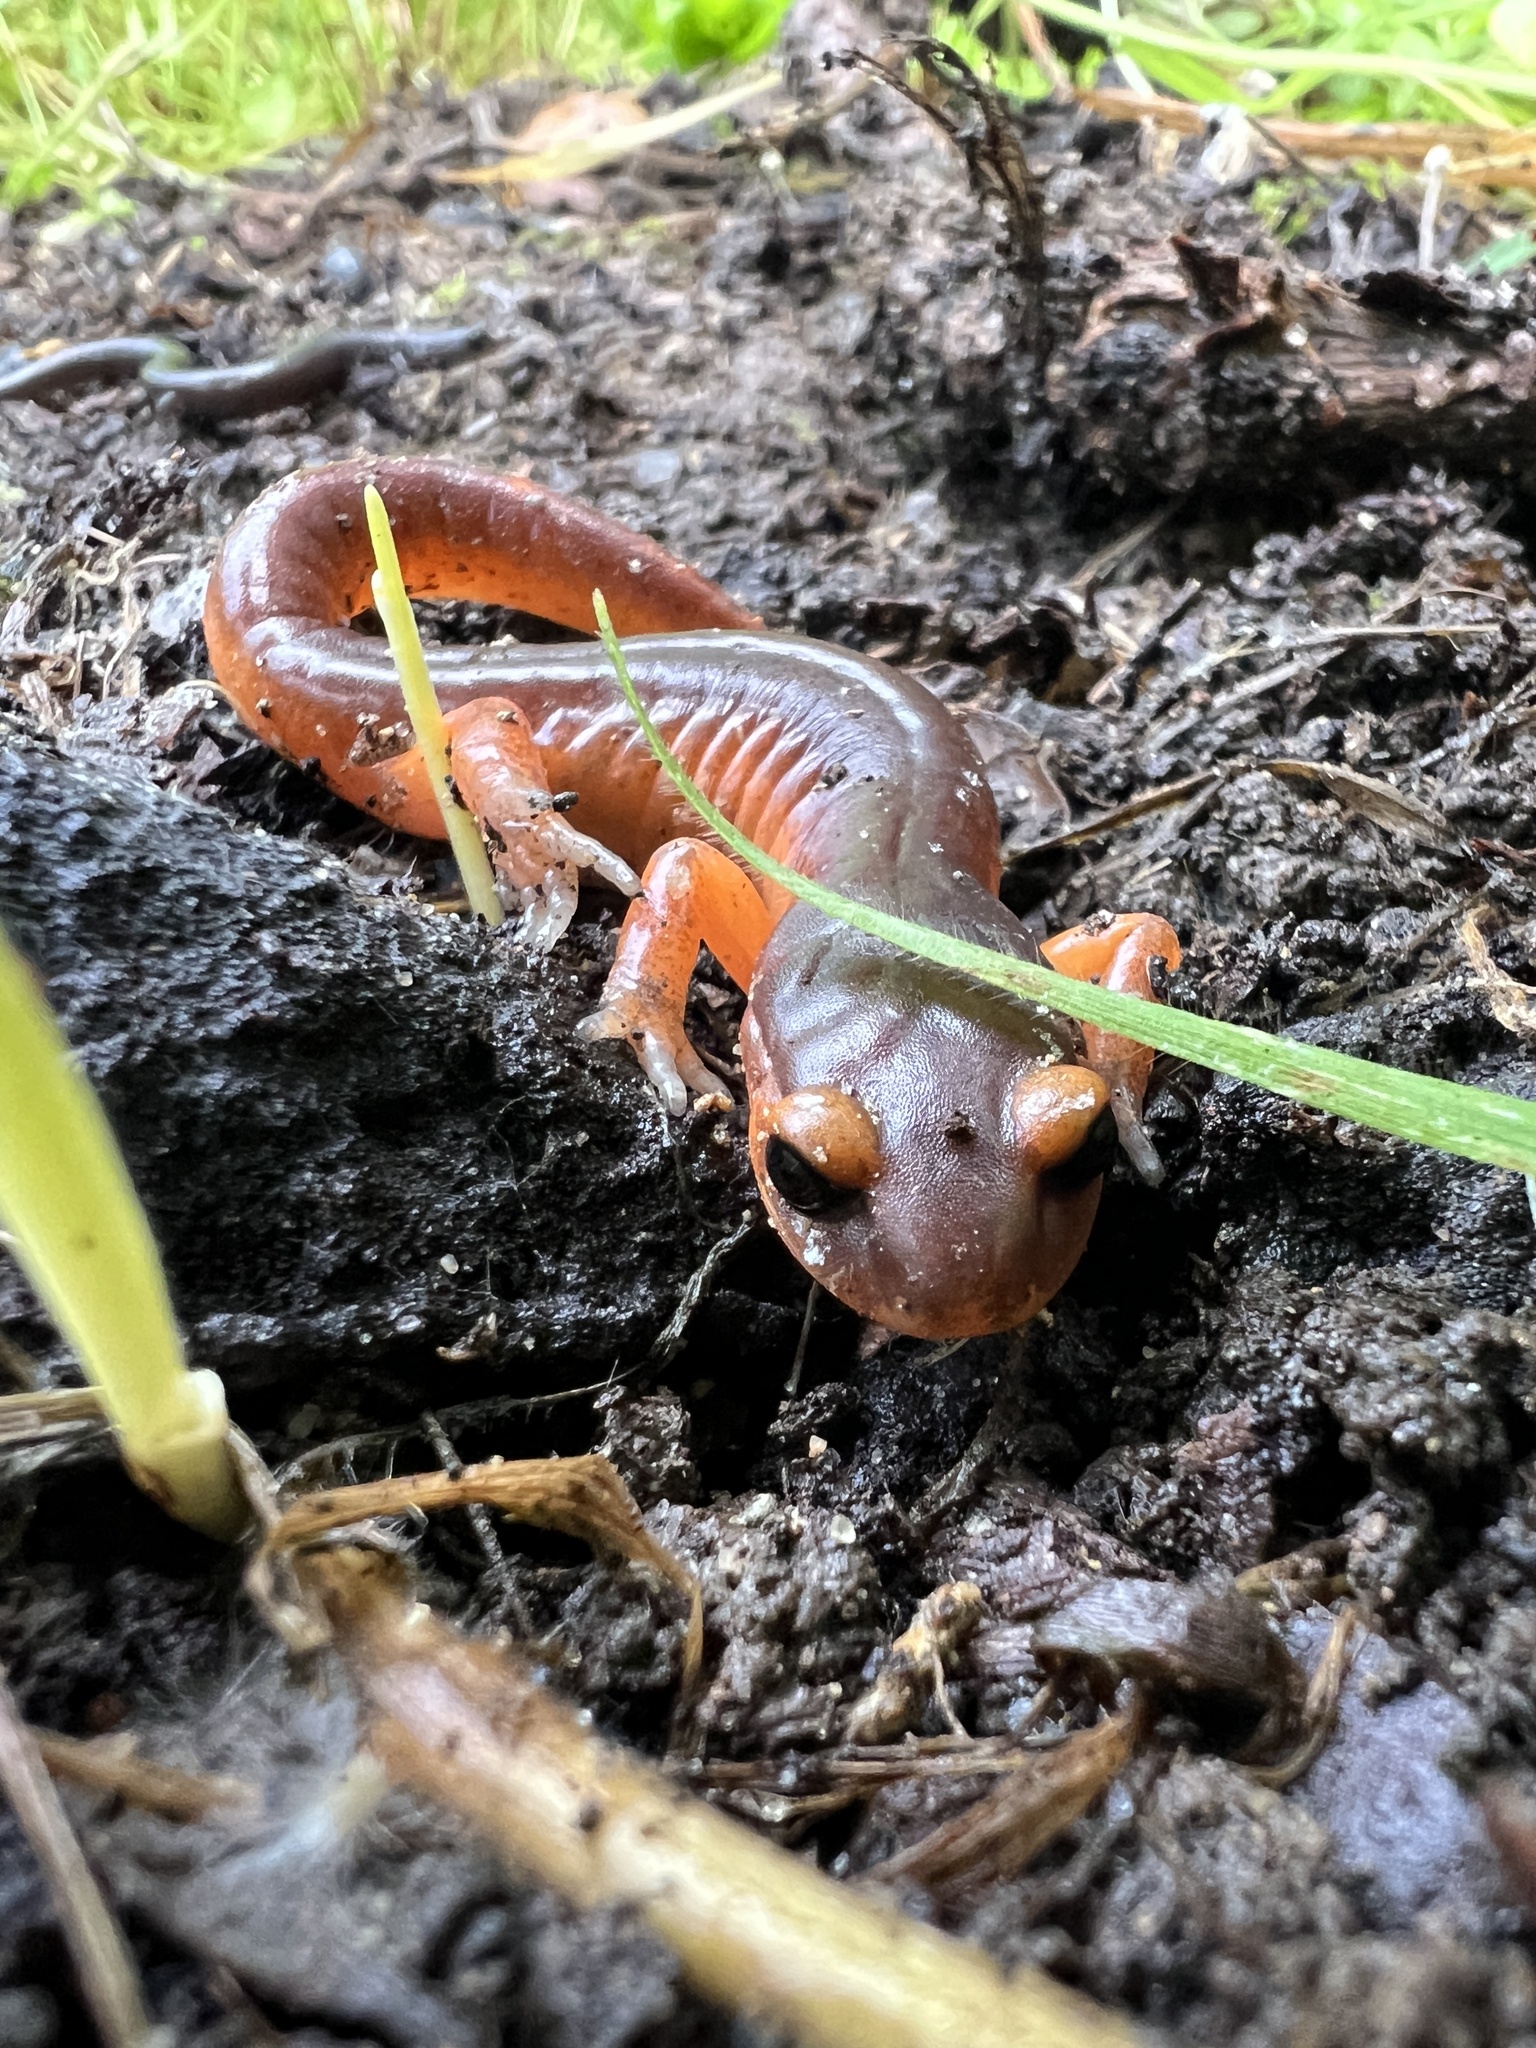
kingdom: Animalia
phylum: Chordata
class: Amphibia
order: Caudata
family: Plethodontidae
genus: Ensatina
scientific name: Ensatina eschscholtzii
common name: Ensatina
